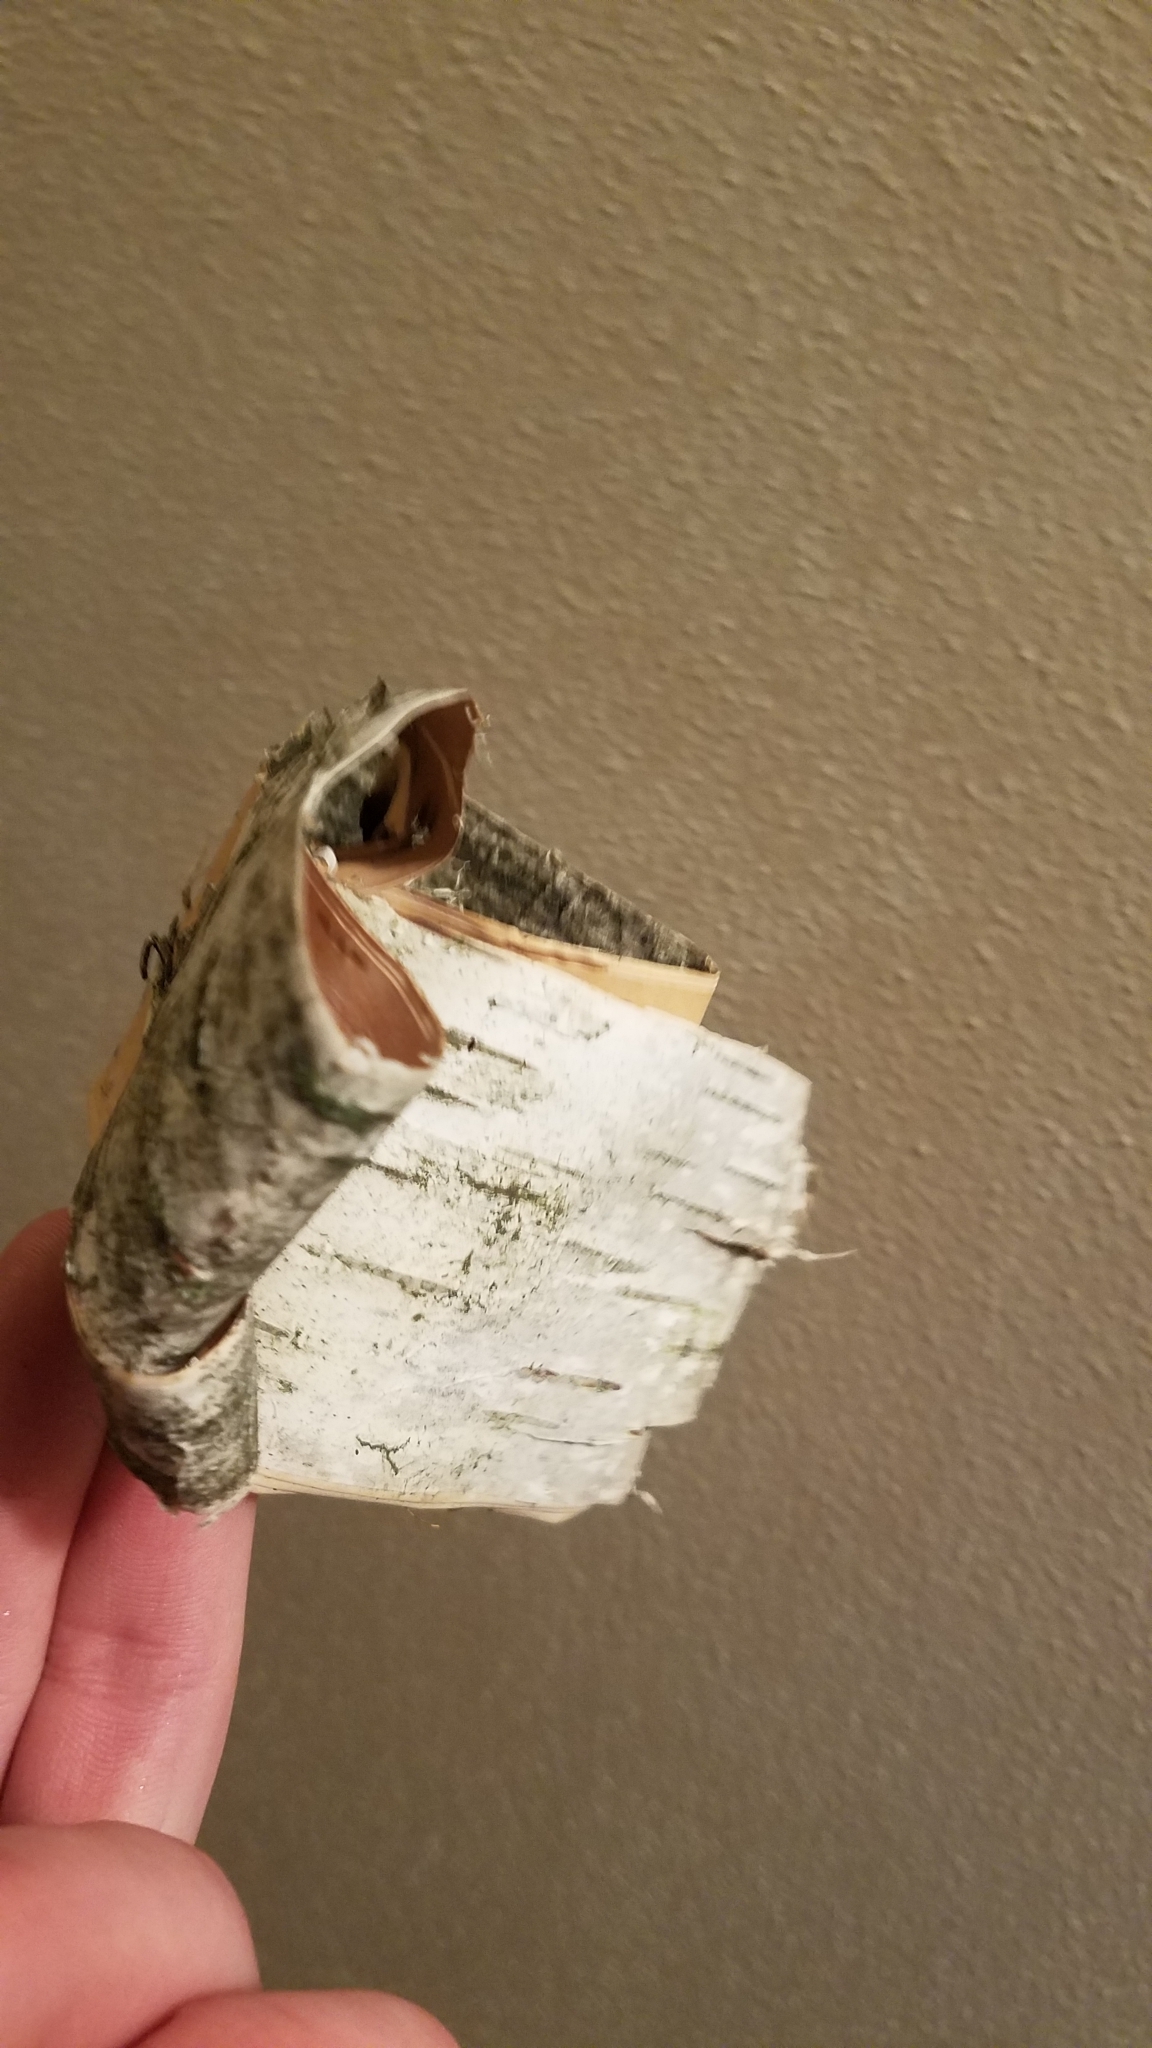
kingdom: Plantae
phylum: Tracheophyta
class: Magnoliopsida
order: Fagales
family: Betulaceae
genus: Betula
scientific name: Betula papyrifera
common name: Paper birch
